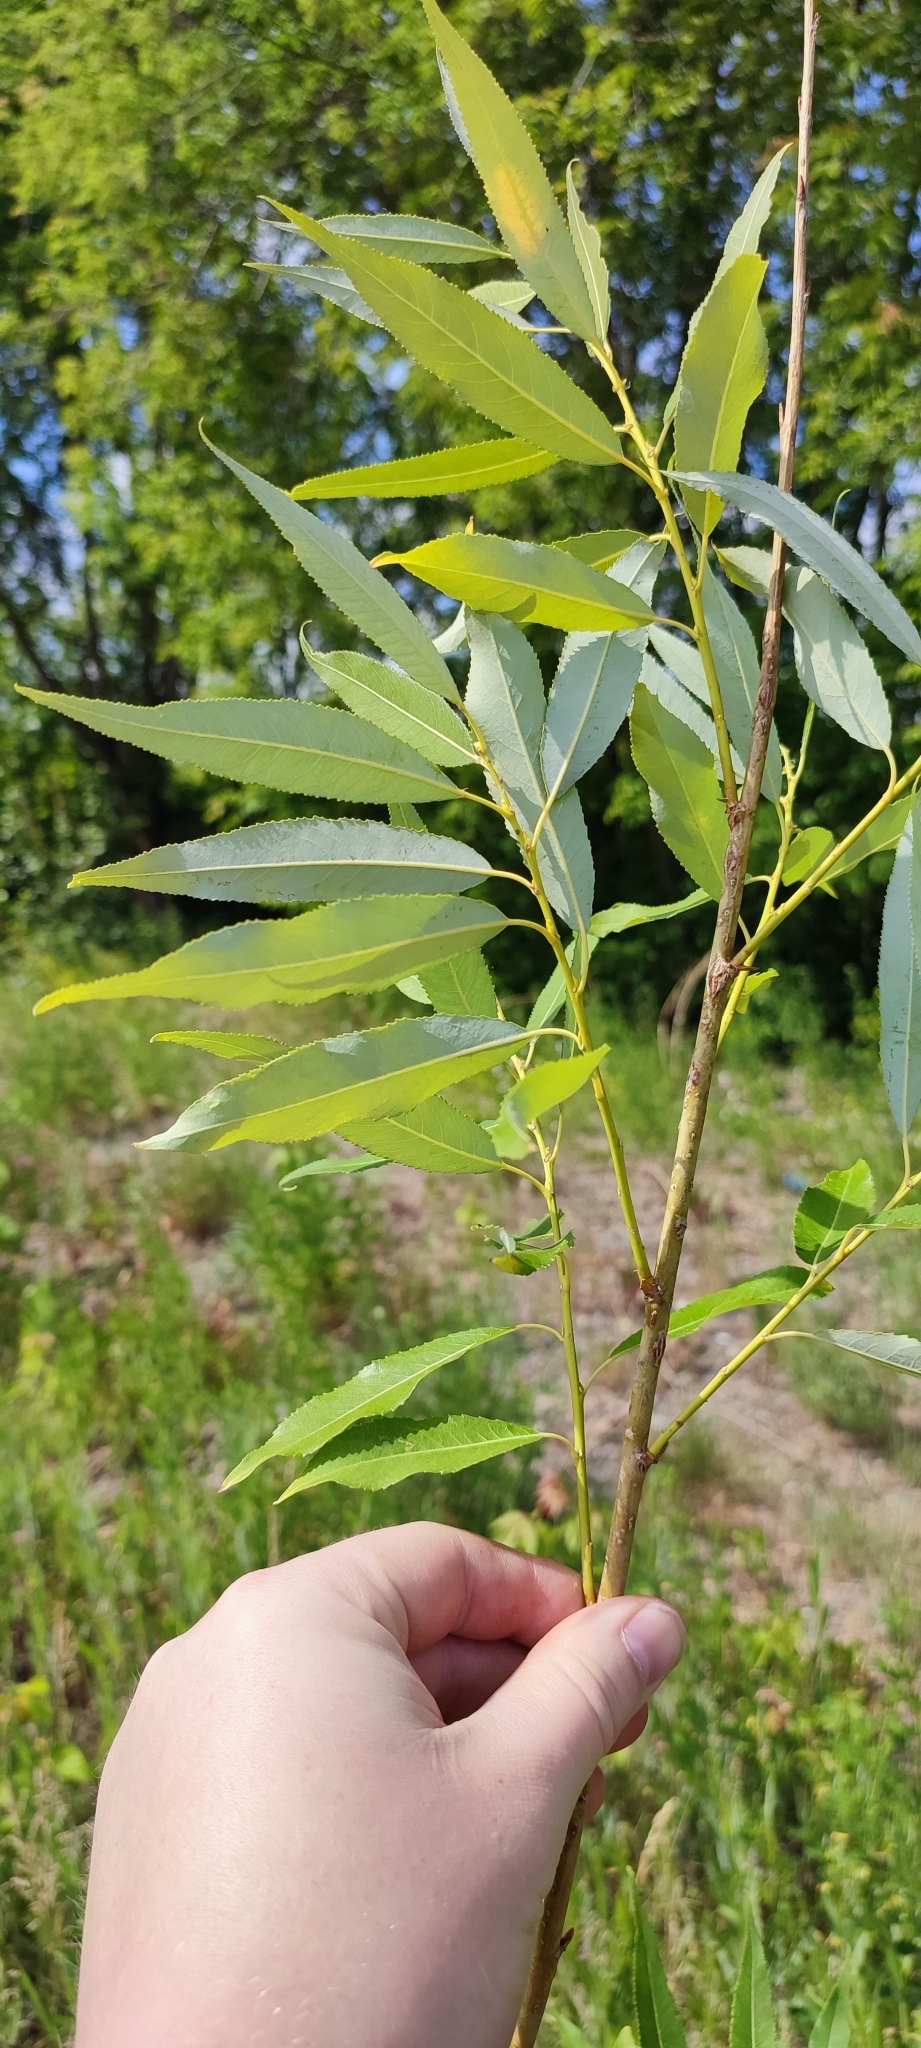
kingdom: Plantae
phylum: Tracheophyta
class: Magnoliopsida
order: Malpighiales
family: Salicaceae
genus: Salix
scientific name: Salix triandra
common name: Almond willow
